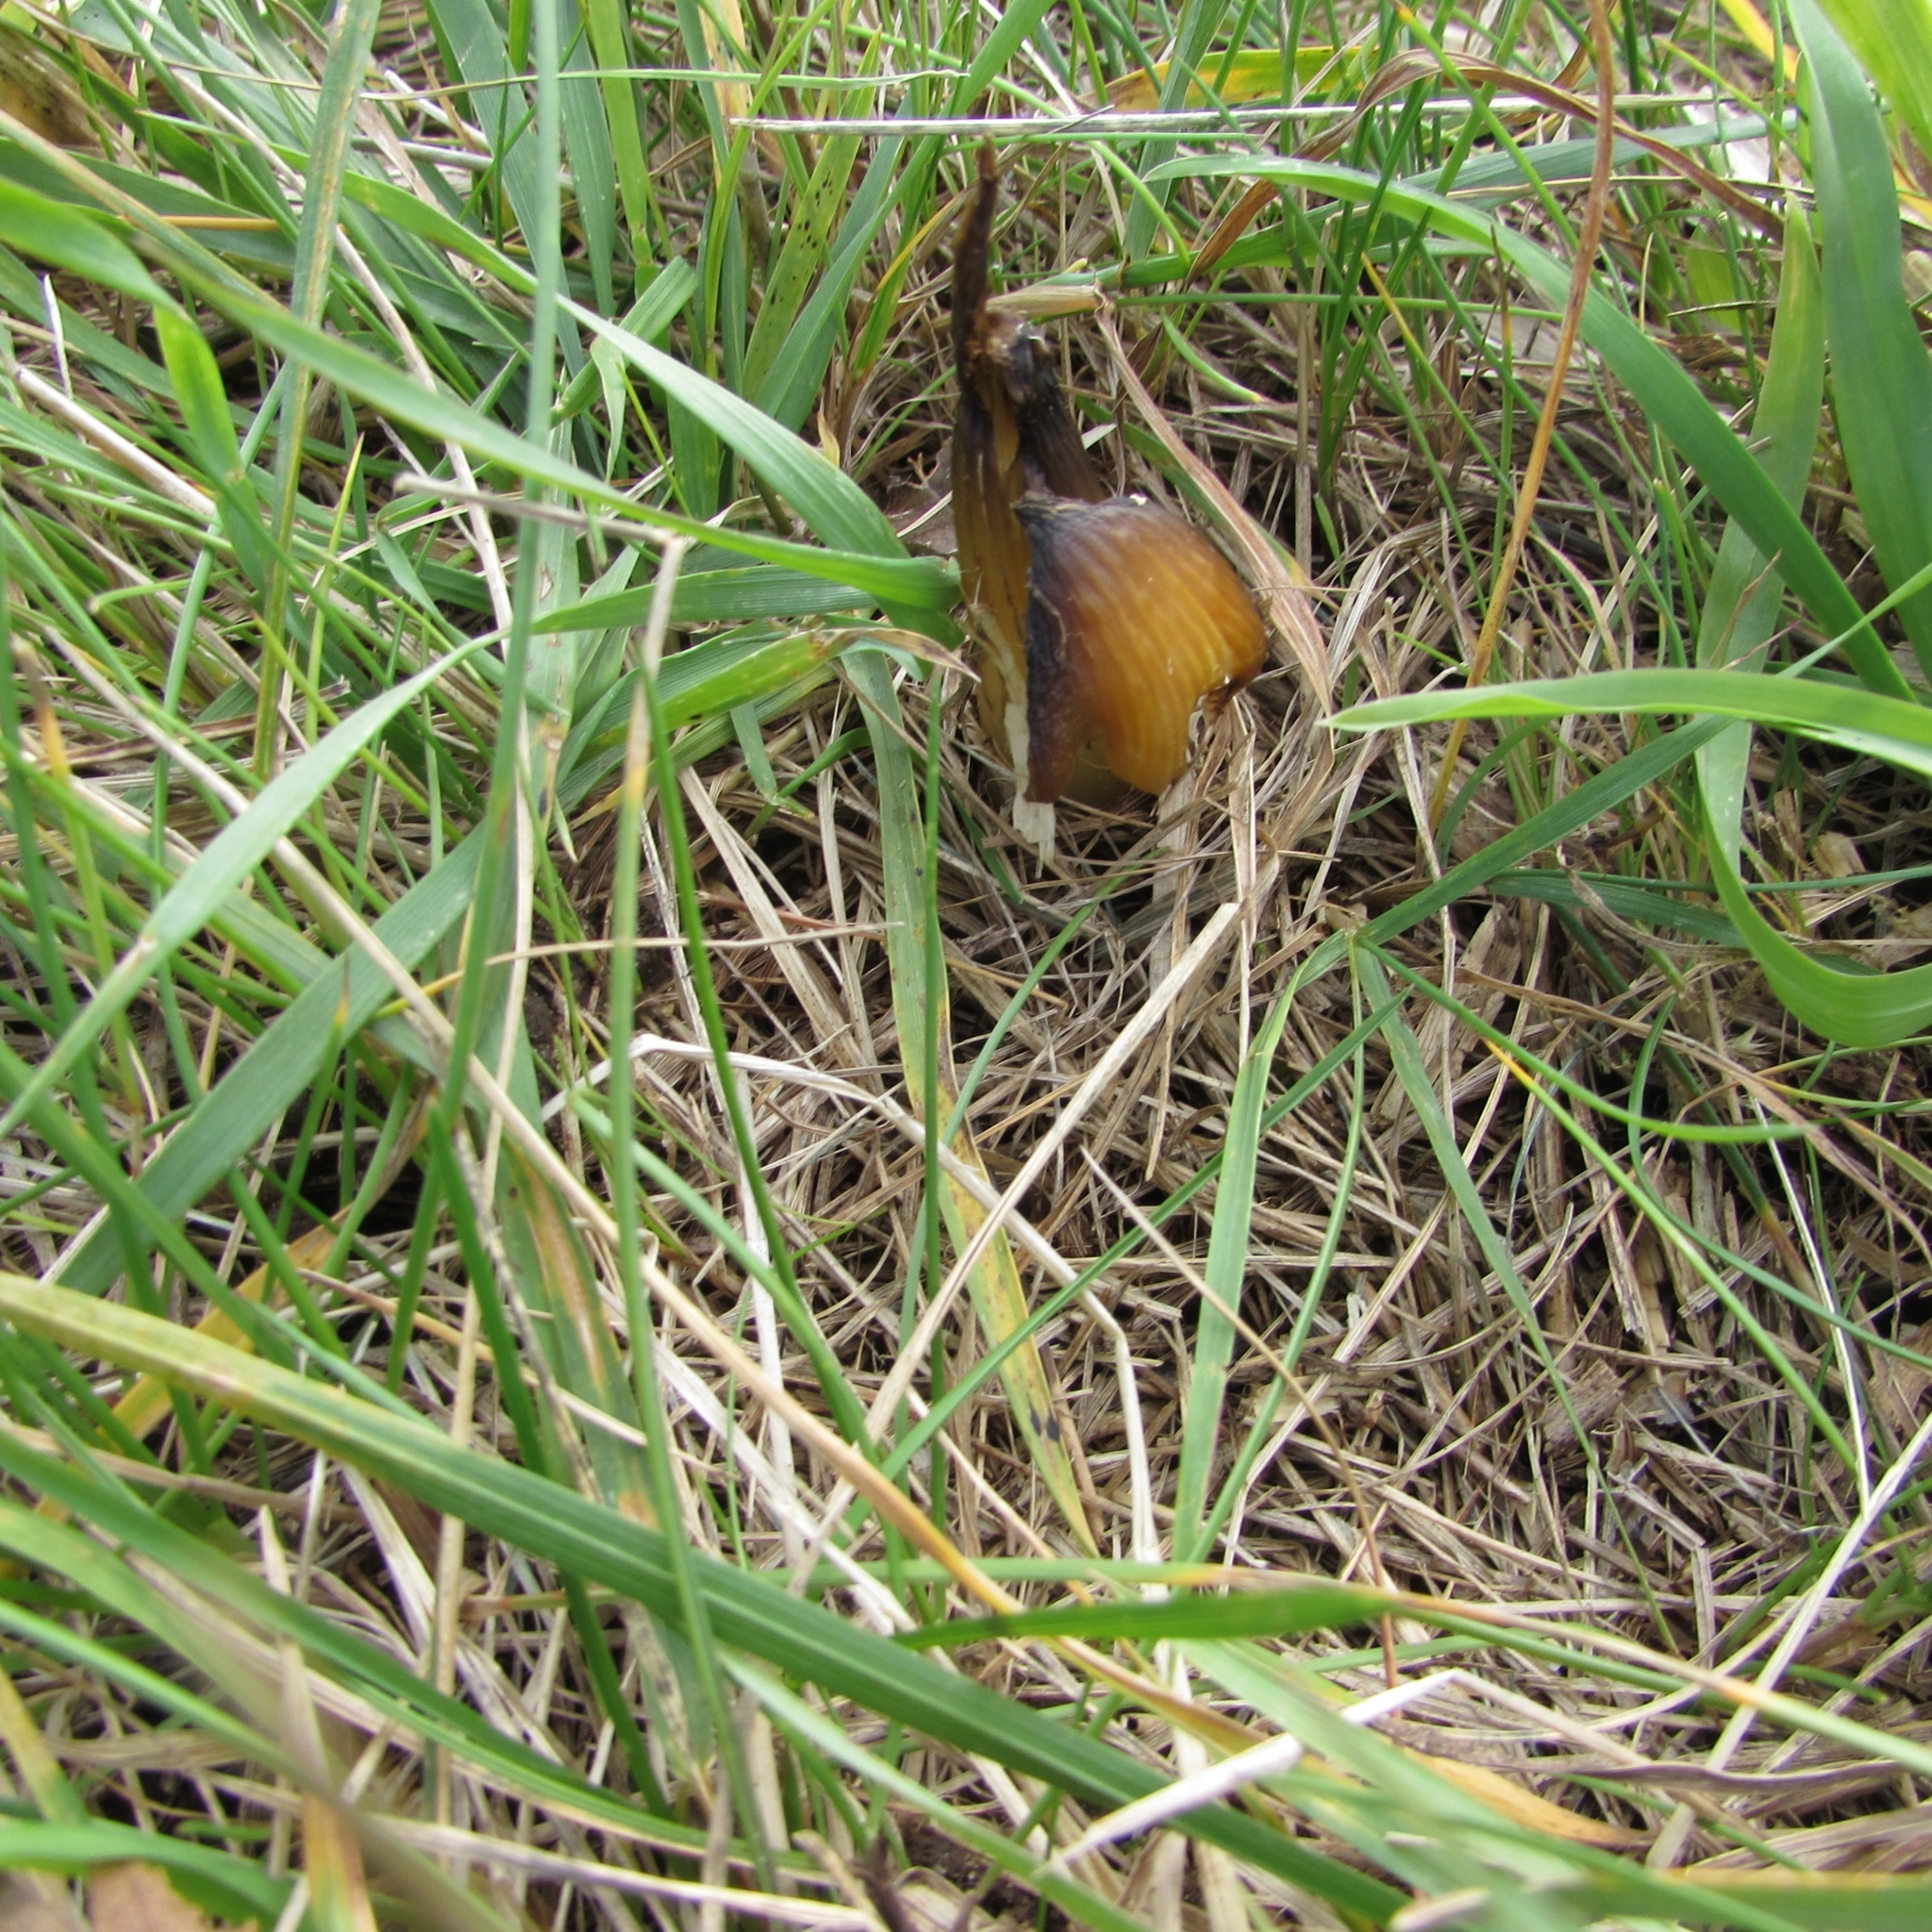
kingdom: Fungi
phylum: Basidiomycota
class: Agaricomycetes
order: Agaricales
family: Hygrophoraceae
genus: Hygrocybe
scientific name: Hygrocybe conica
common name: Blackening wax-cap
